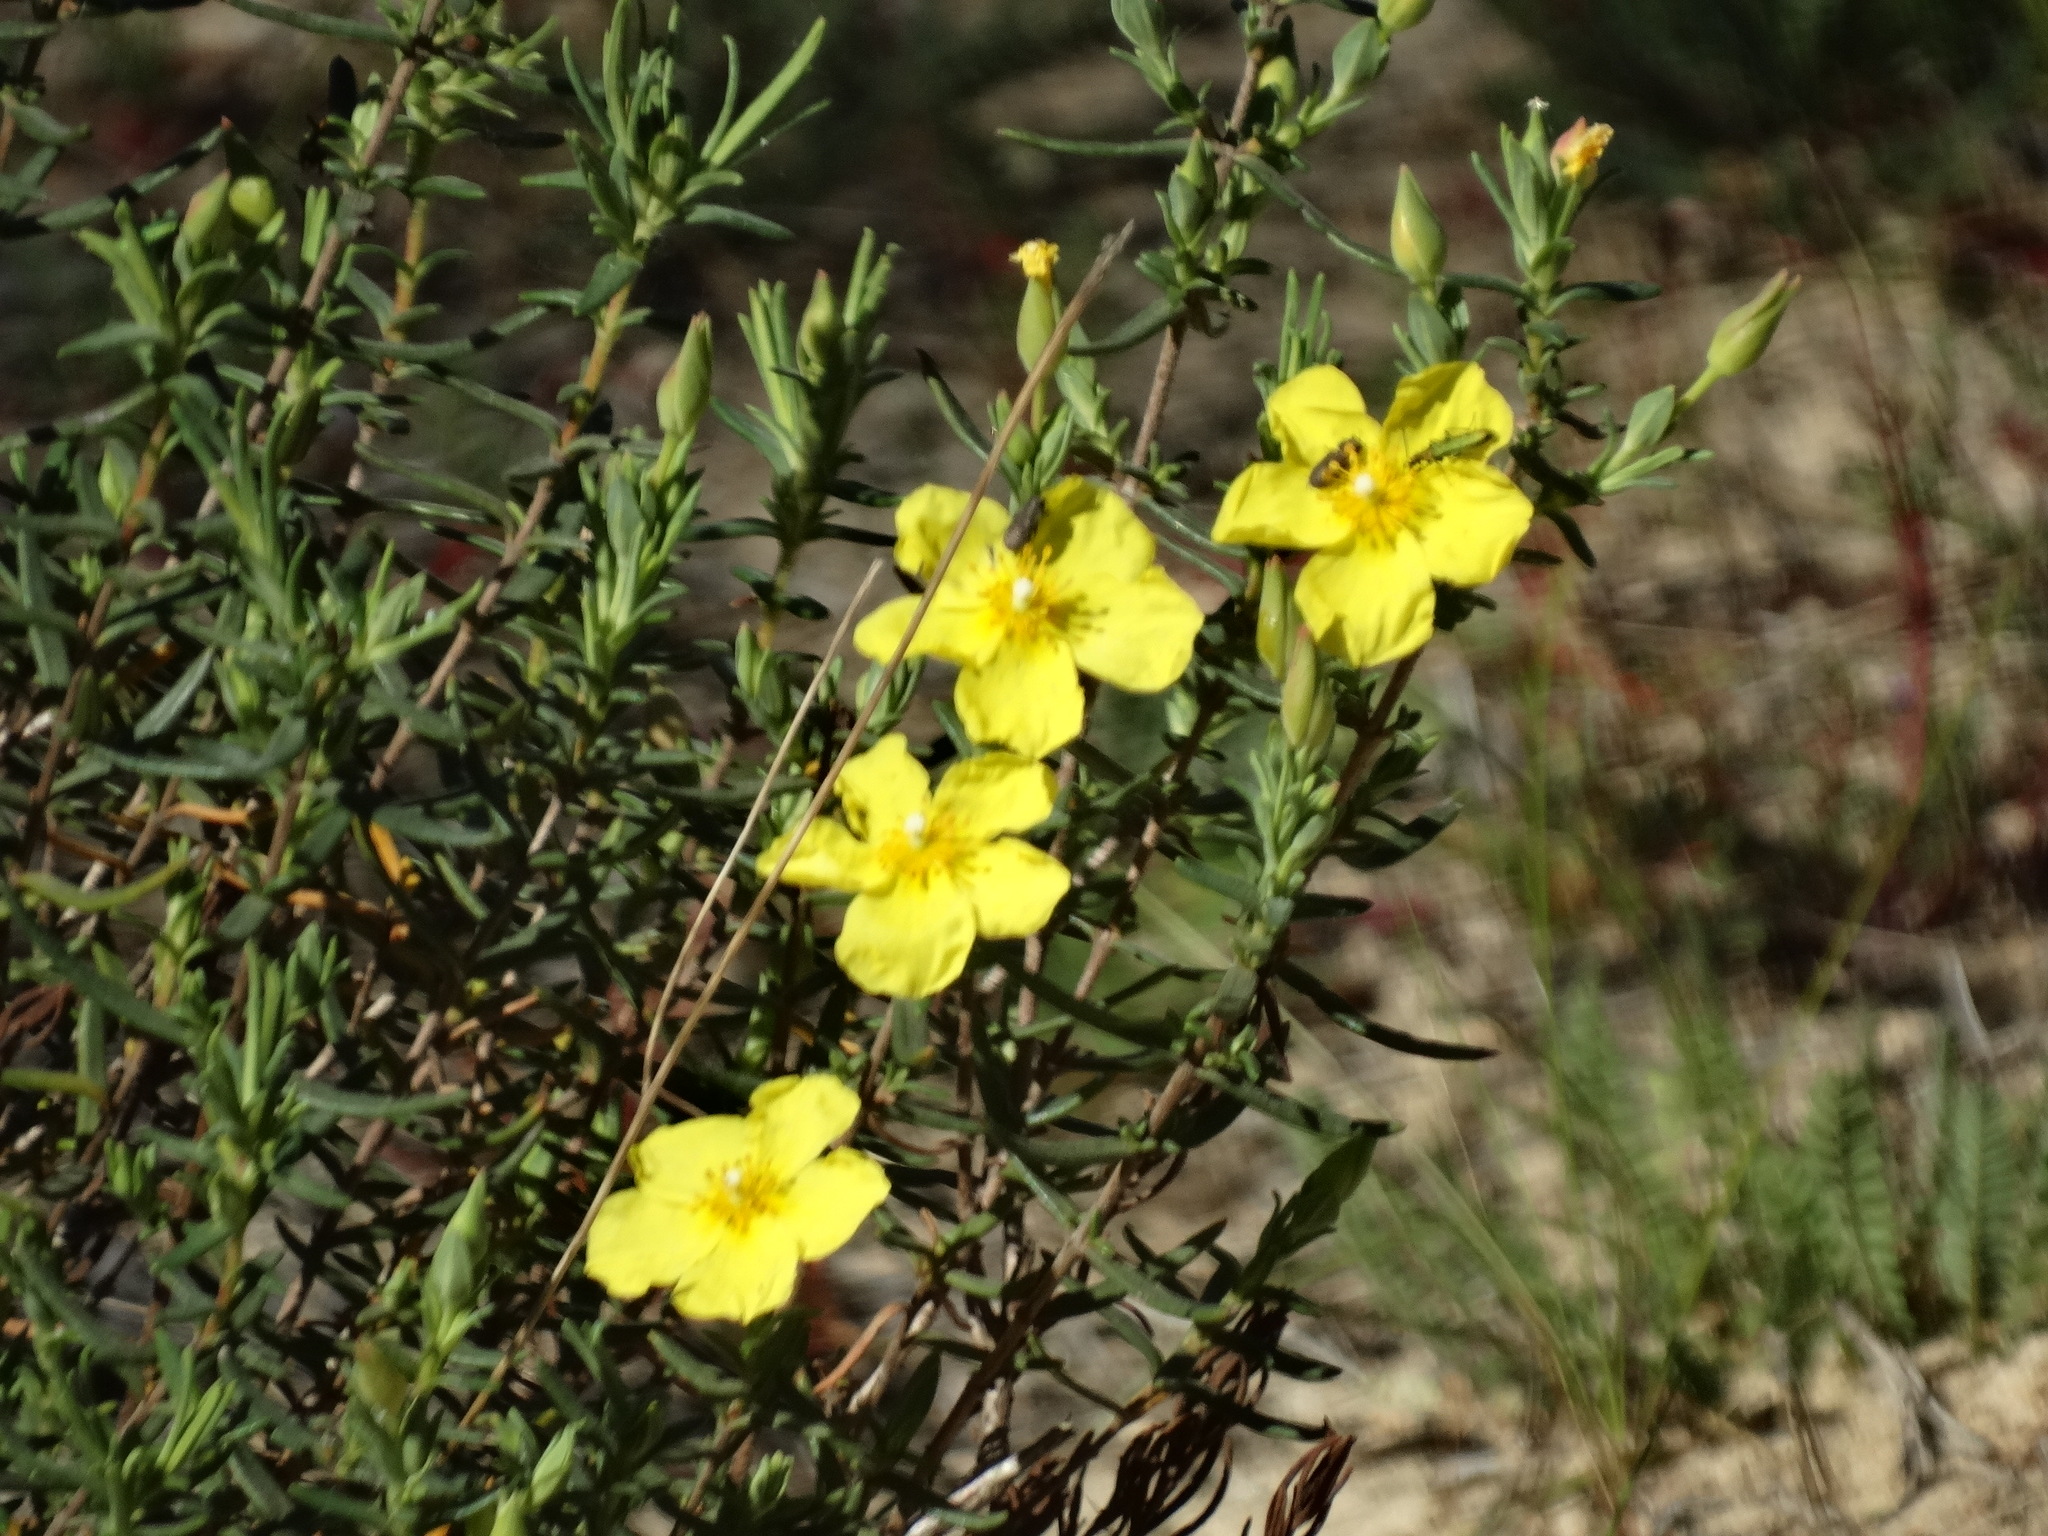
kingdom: Plantae
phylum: Tracheophyta
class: Magnoliopsida
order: Malvales
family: Cistaceae
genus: Halimium
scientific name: Halimium calycinum
